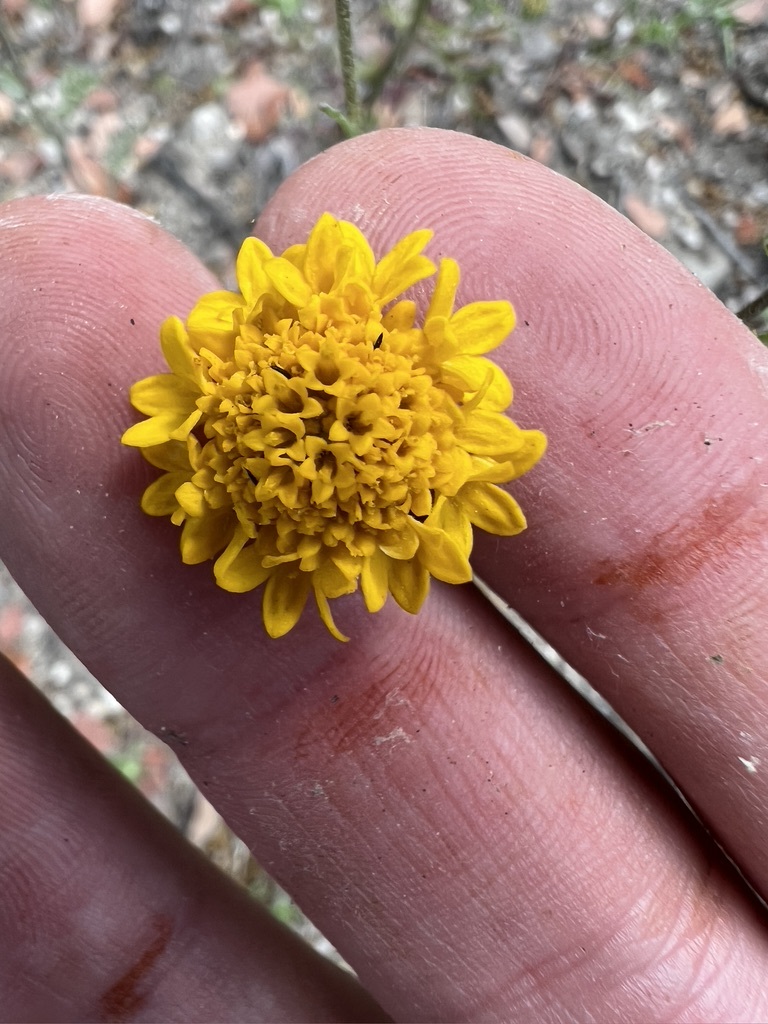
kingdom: Plantae
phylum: Tracheophyta
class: Magnoliopsida
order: Asterales
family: Asteraceae
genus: Chaenactis
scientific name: Chaenactis glabriuscula
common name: Yellow pincushion
